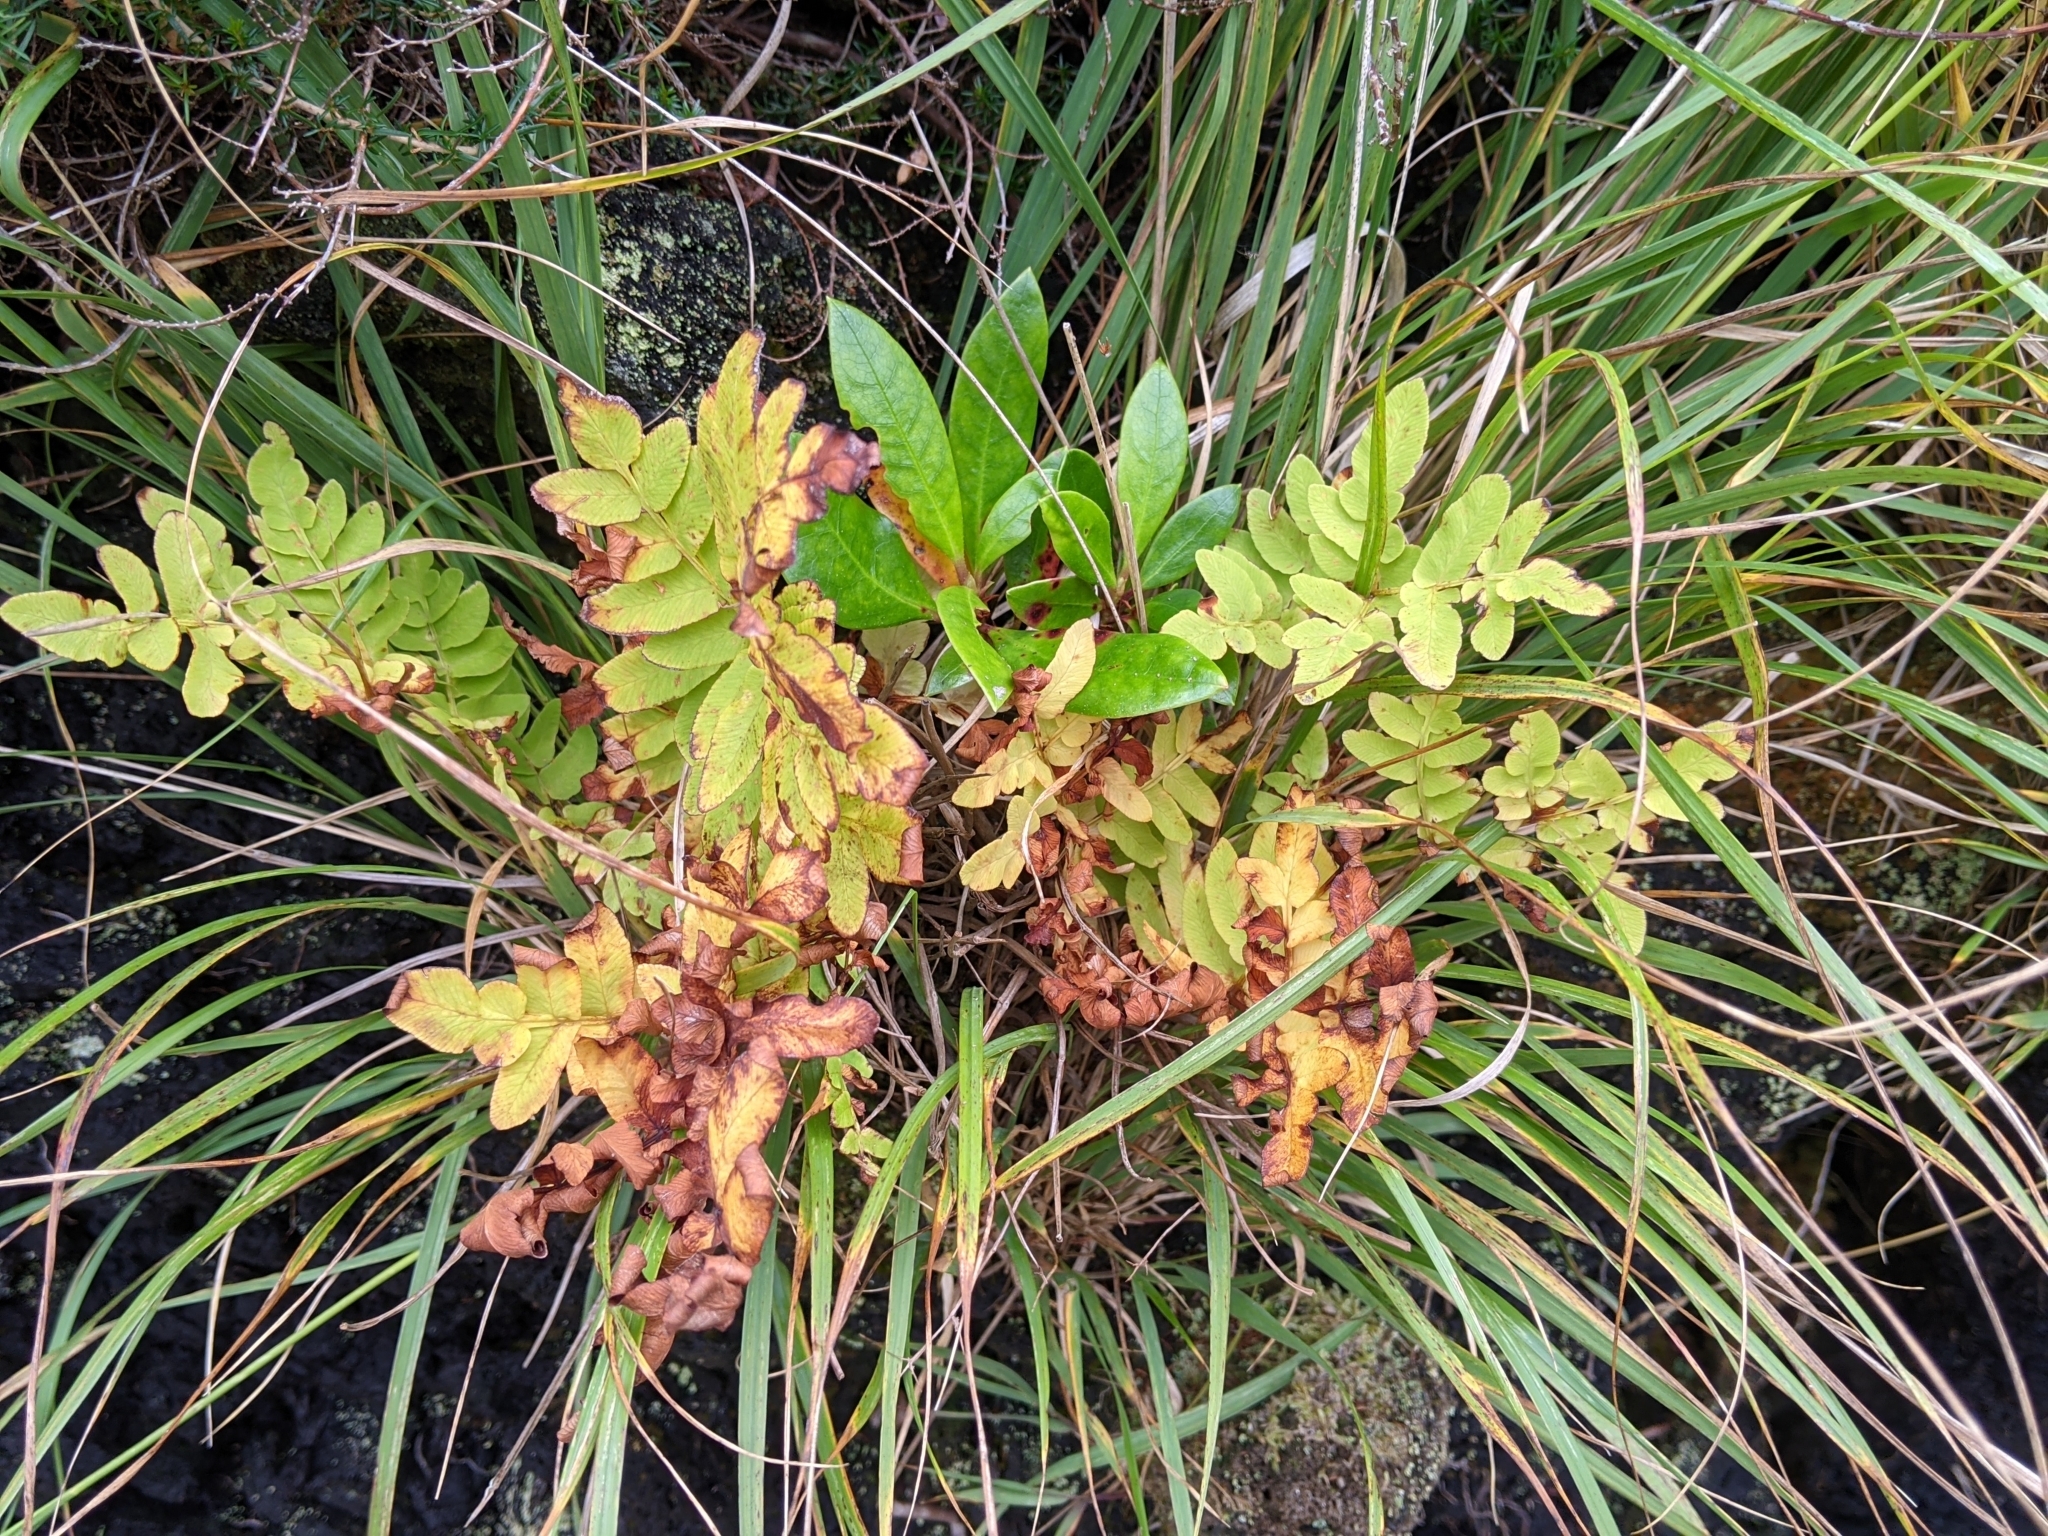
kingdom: Plantae
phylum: Tracheophyta
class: Polypodiopsida
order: Osmundales
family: Osmundaceae
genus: Osmunda
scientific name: Osmunda regalis
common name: Royal fern
